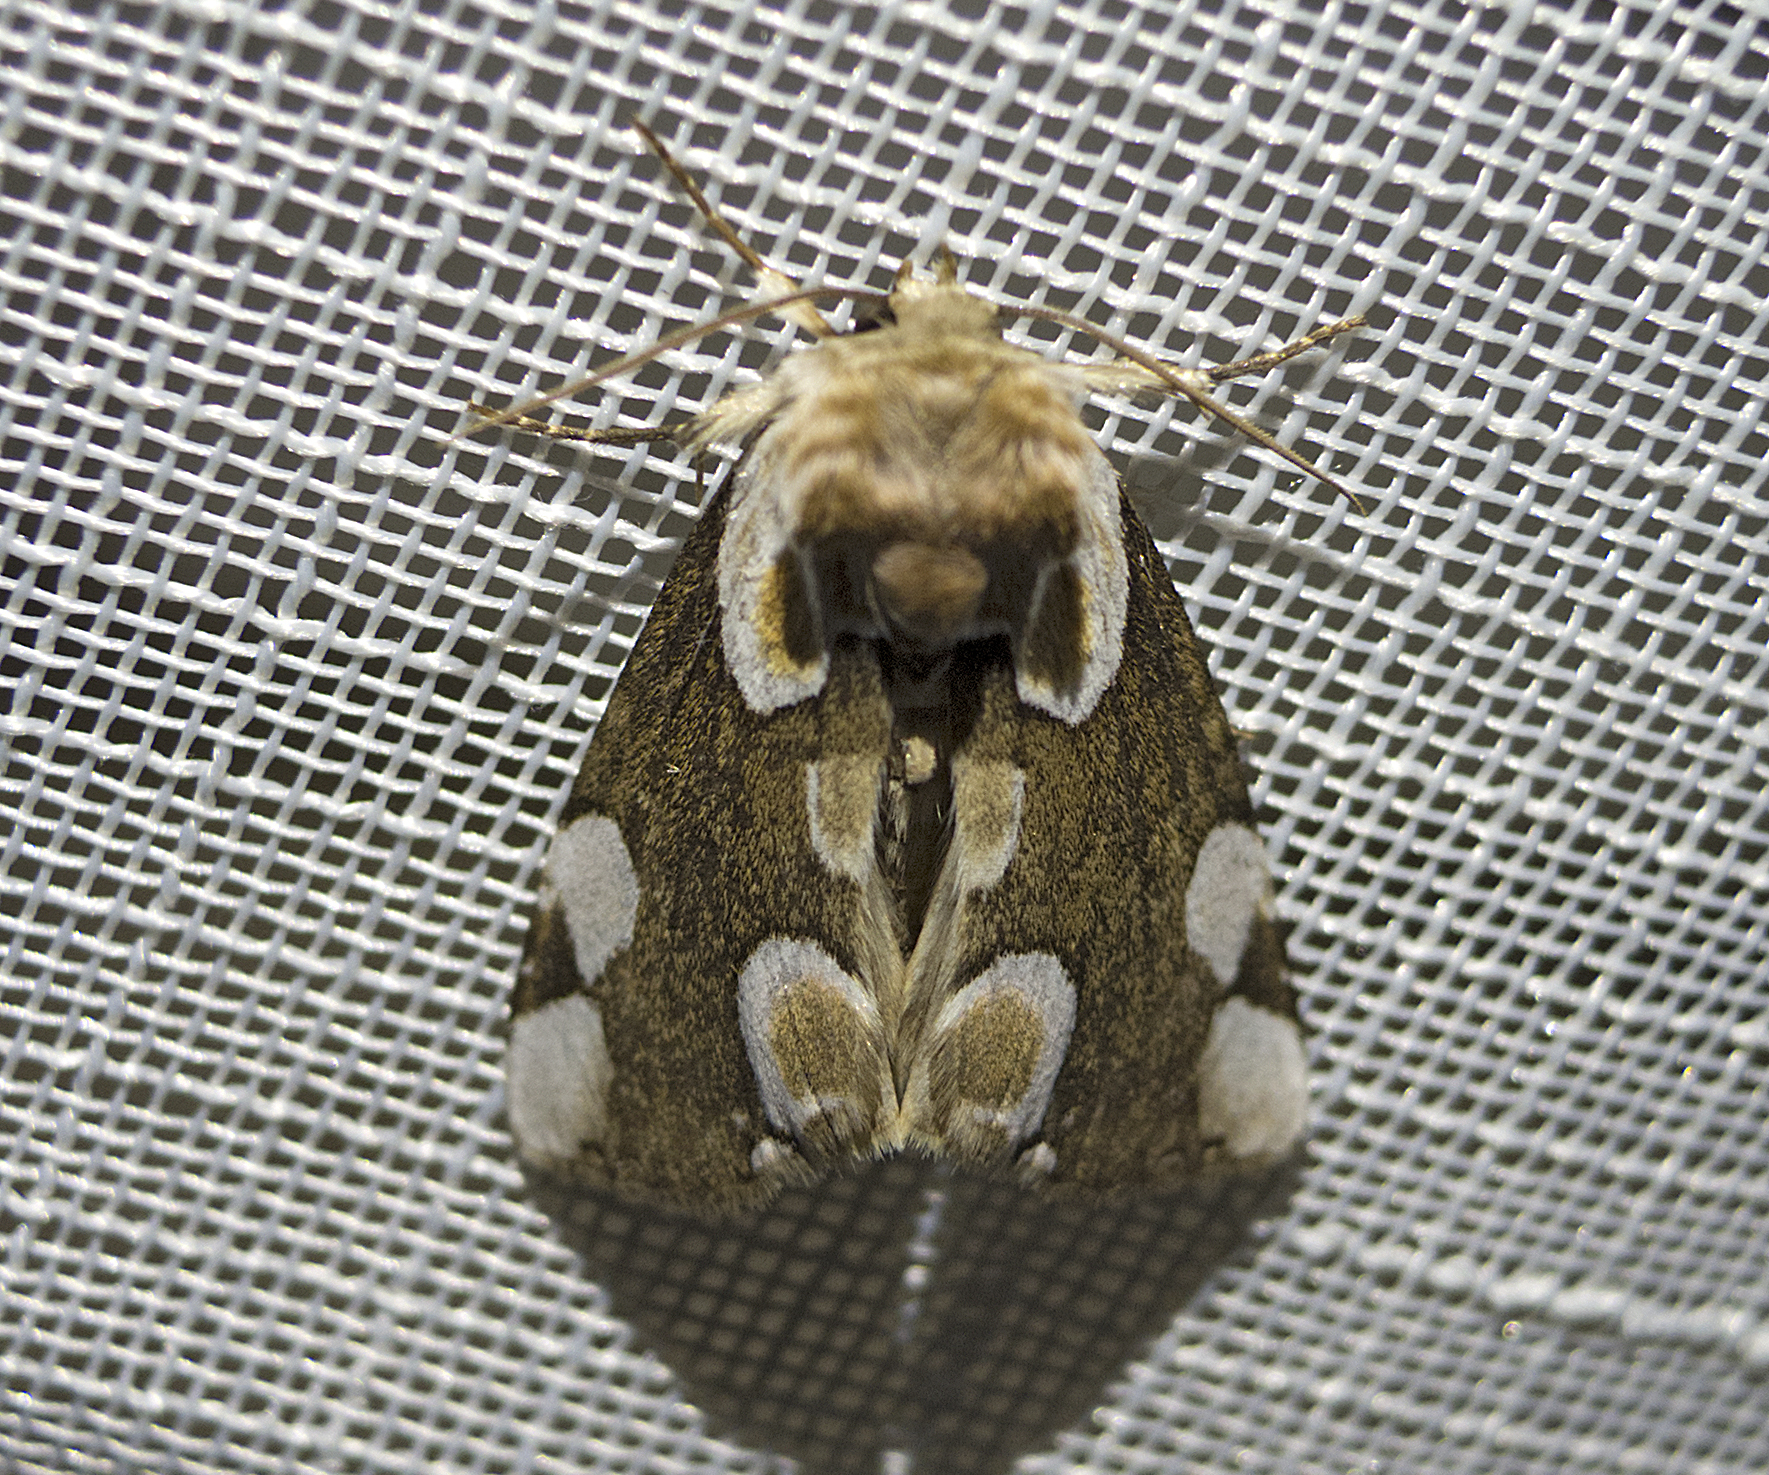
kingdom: Animalia
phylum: Arthropoda
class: Insecta
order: Lepidoptera
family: Drepanidae
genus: Thyatira
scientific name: Thyatira batis
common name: Peach blossom
